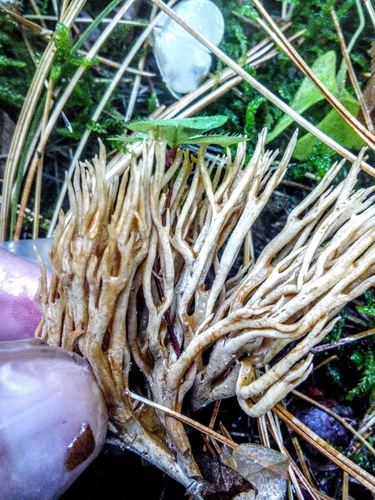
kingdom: Fungi
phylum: Basidiomycota
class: Agaricomycetes
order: Gomphales
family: Gomphaceae
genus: Ramaria
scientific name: Ramaria
